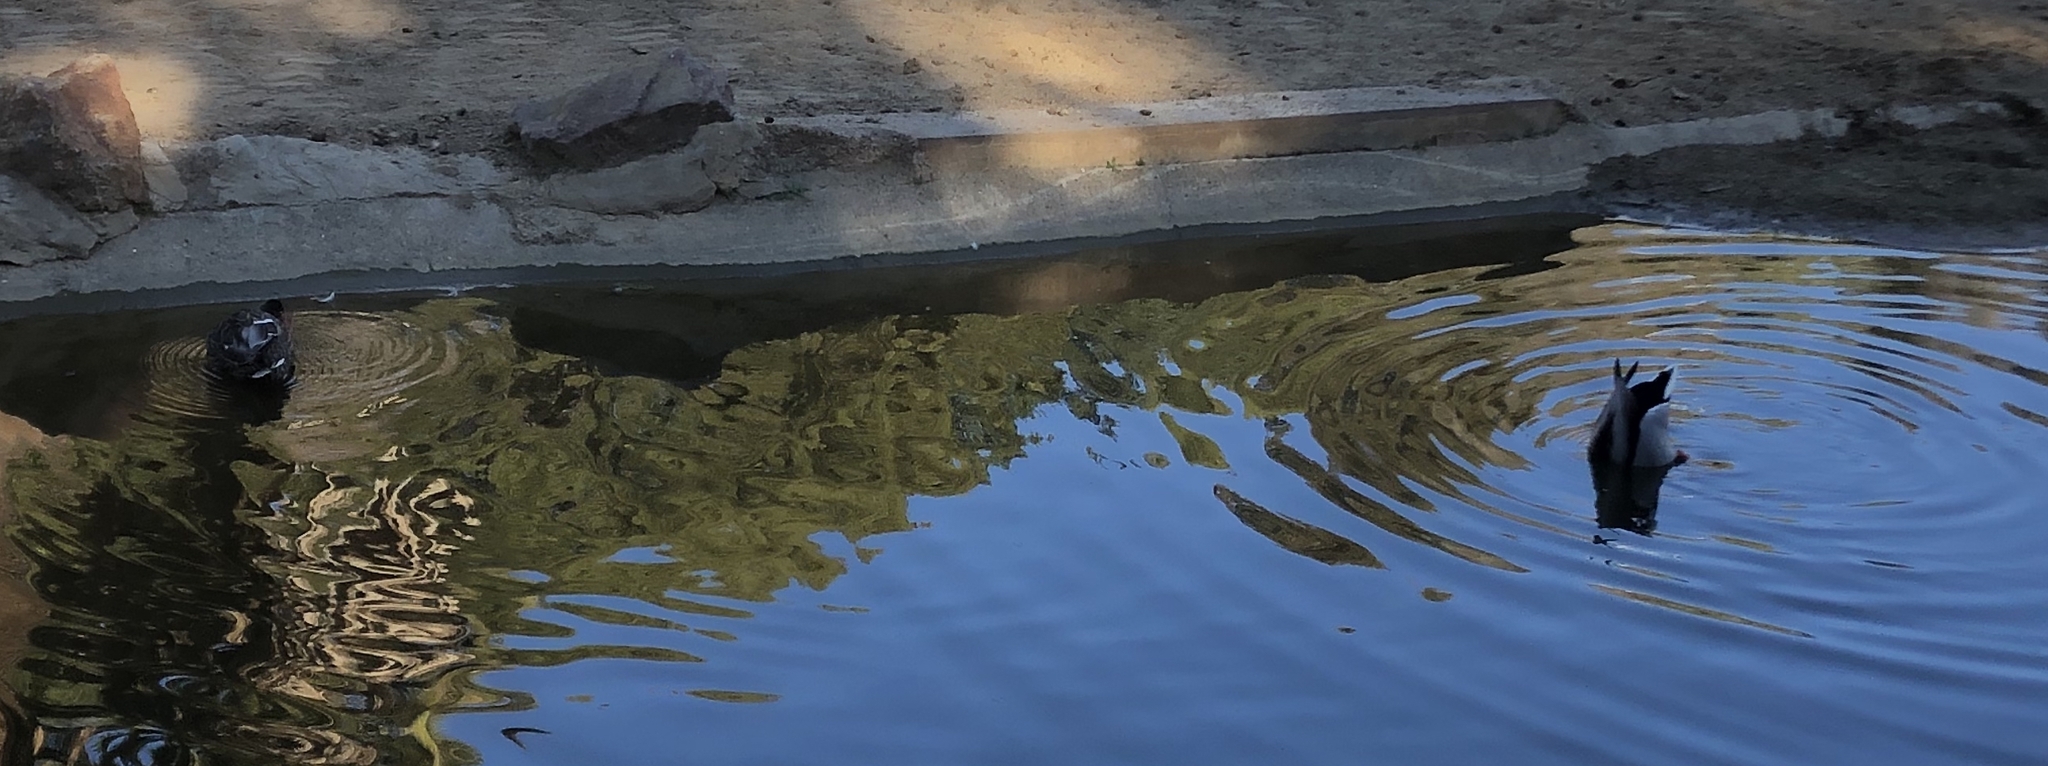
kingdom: Animalia
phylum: Chordata
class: Aves
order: Anseriformes
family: Anatidae
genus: Anas
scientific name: Anas platyrhynchos
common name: Mallard
